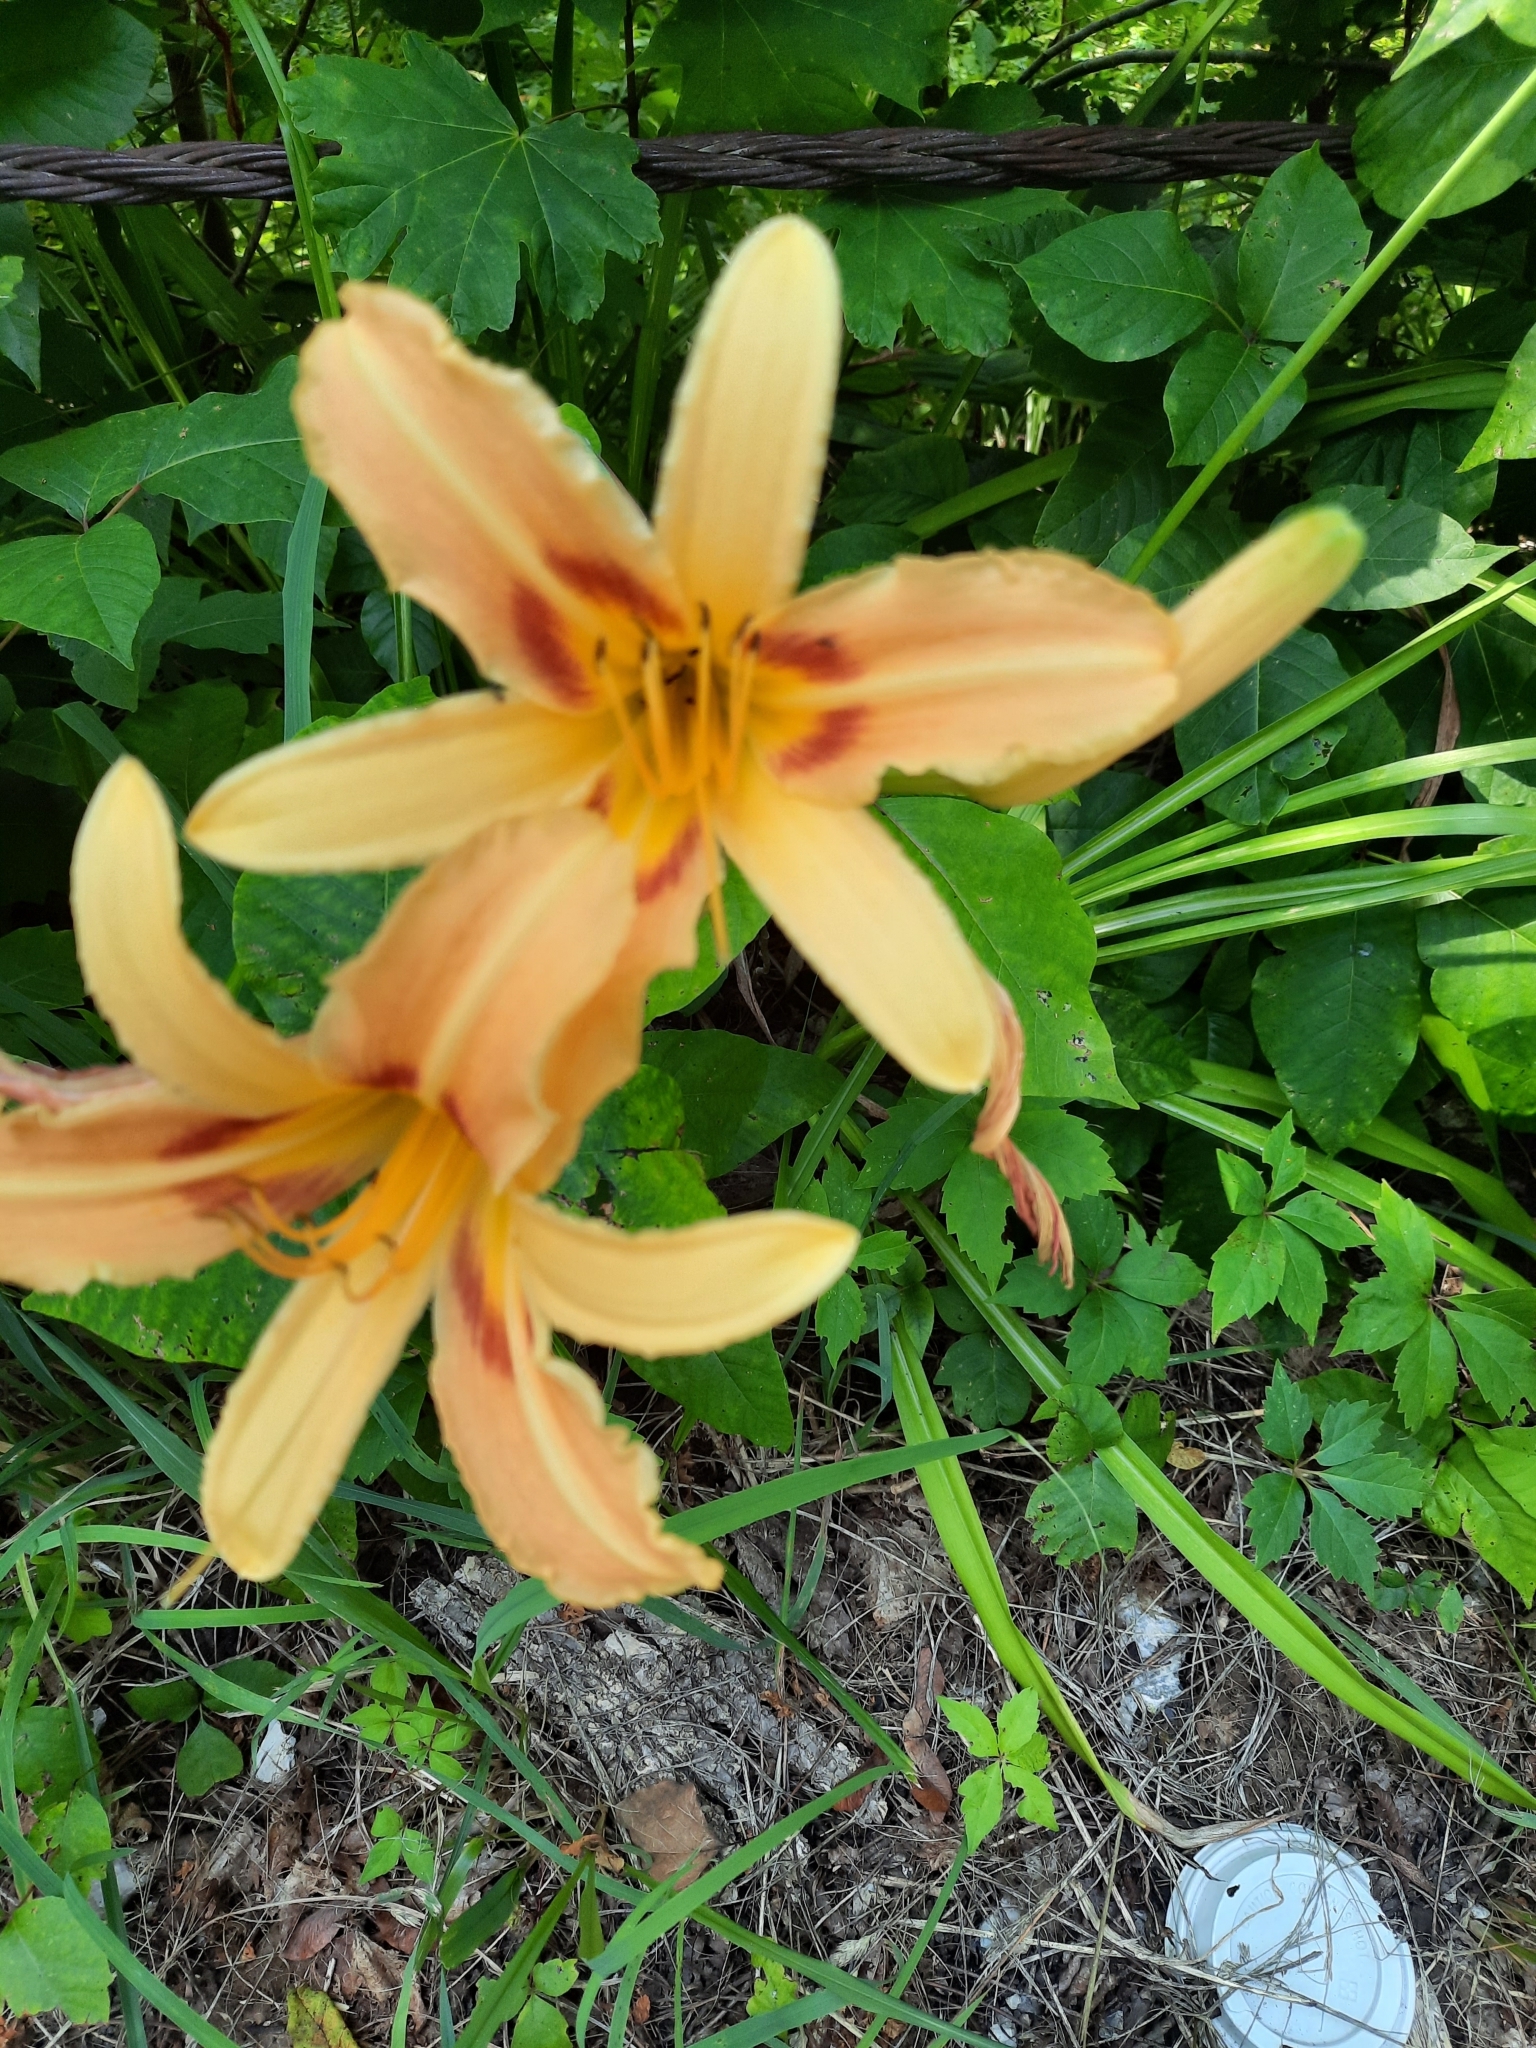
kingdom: Plantae
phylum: Tracheophyta
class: Liliopsida
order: Asparagales
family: Asphodelaceae
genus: Hemerocallis
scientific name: Hemerocallis fulva
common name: Orange day-lily
